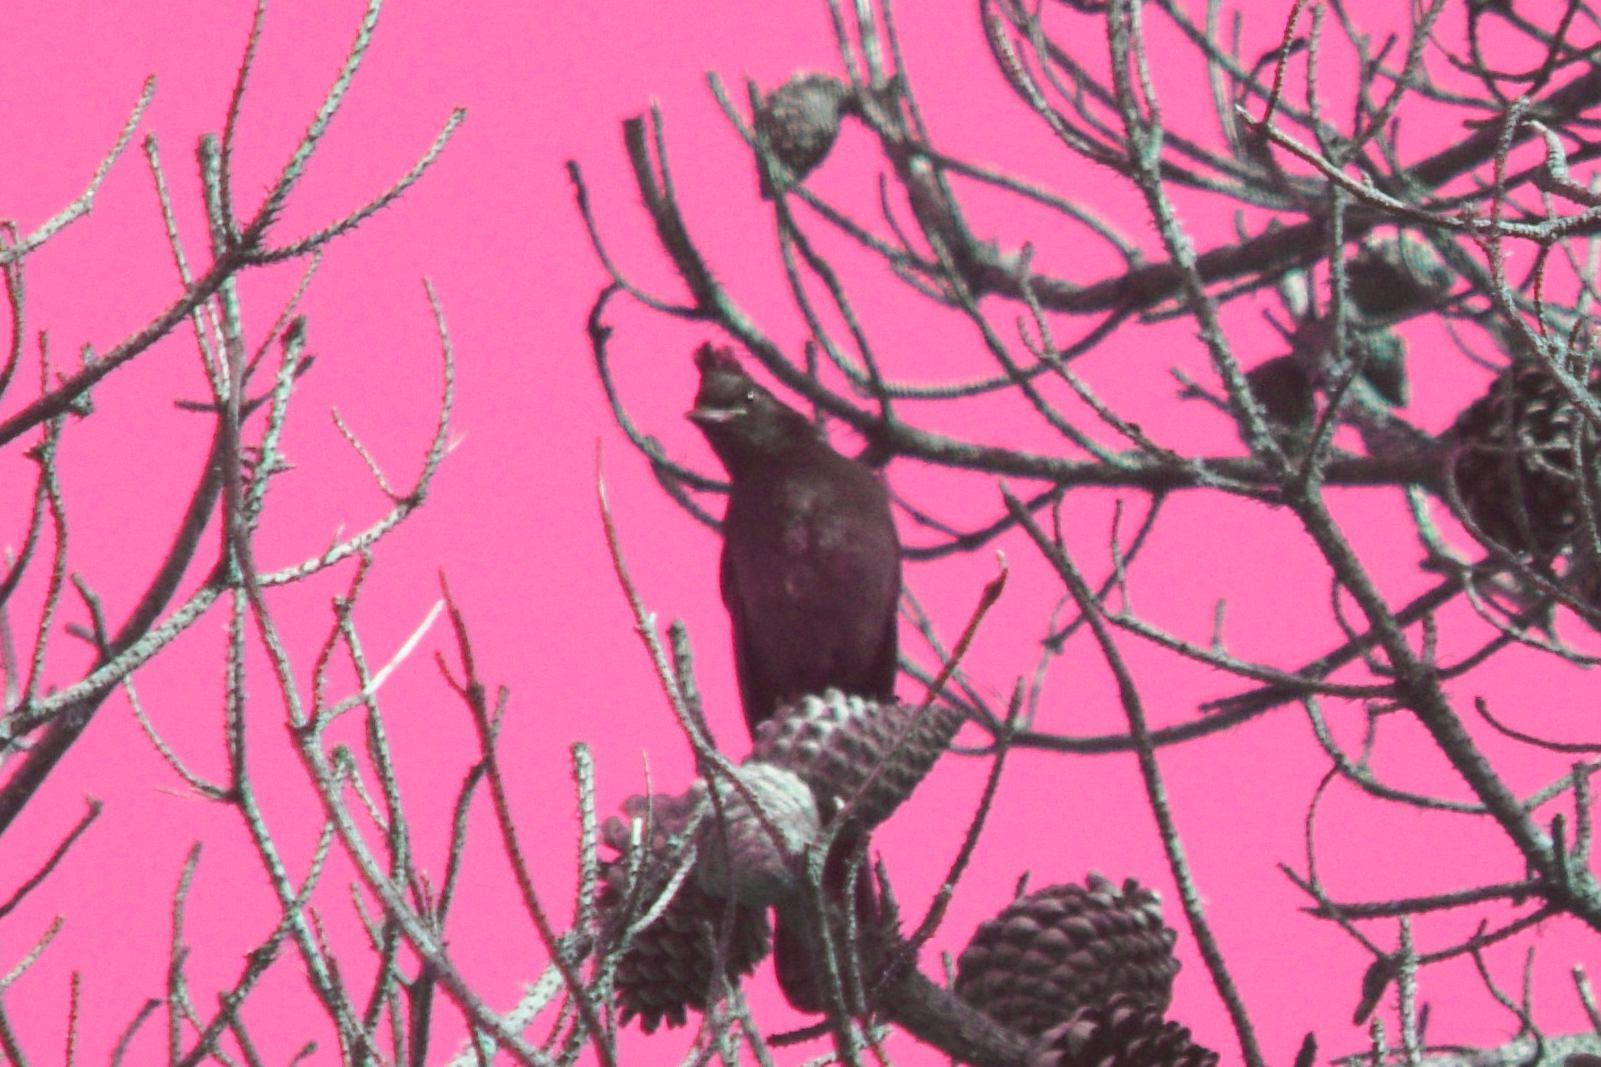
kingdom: Animalia
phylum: Chordata
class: Aves
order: Passeriformes
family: Corvidae
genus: Cyanocitta
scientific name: Cyanocitta stelleri
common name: Steller's jay
